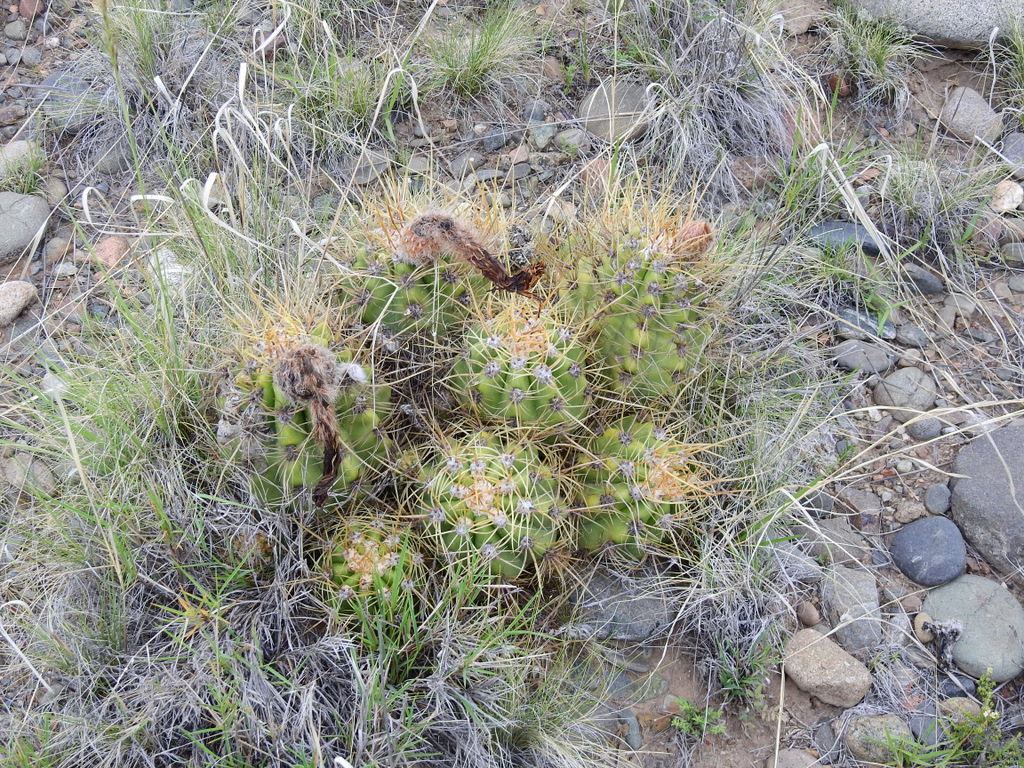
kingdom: Plantae
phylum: Tracheophyta
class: Magnoliopsida
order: Caryophyllales
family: Cactaceae
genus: Soehrensia
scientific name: Soehrensia candicans
